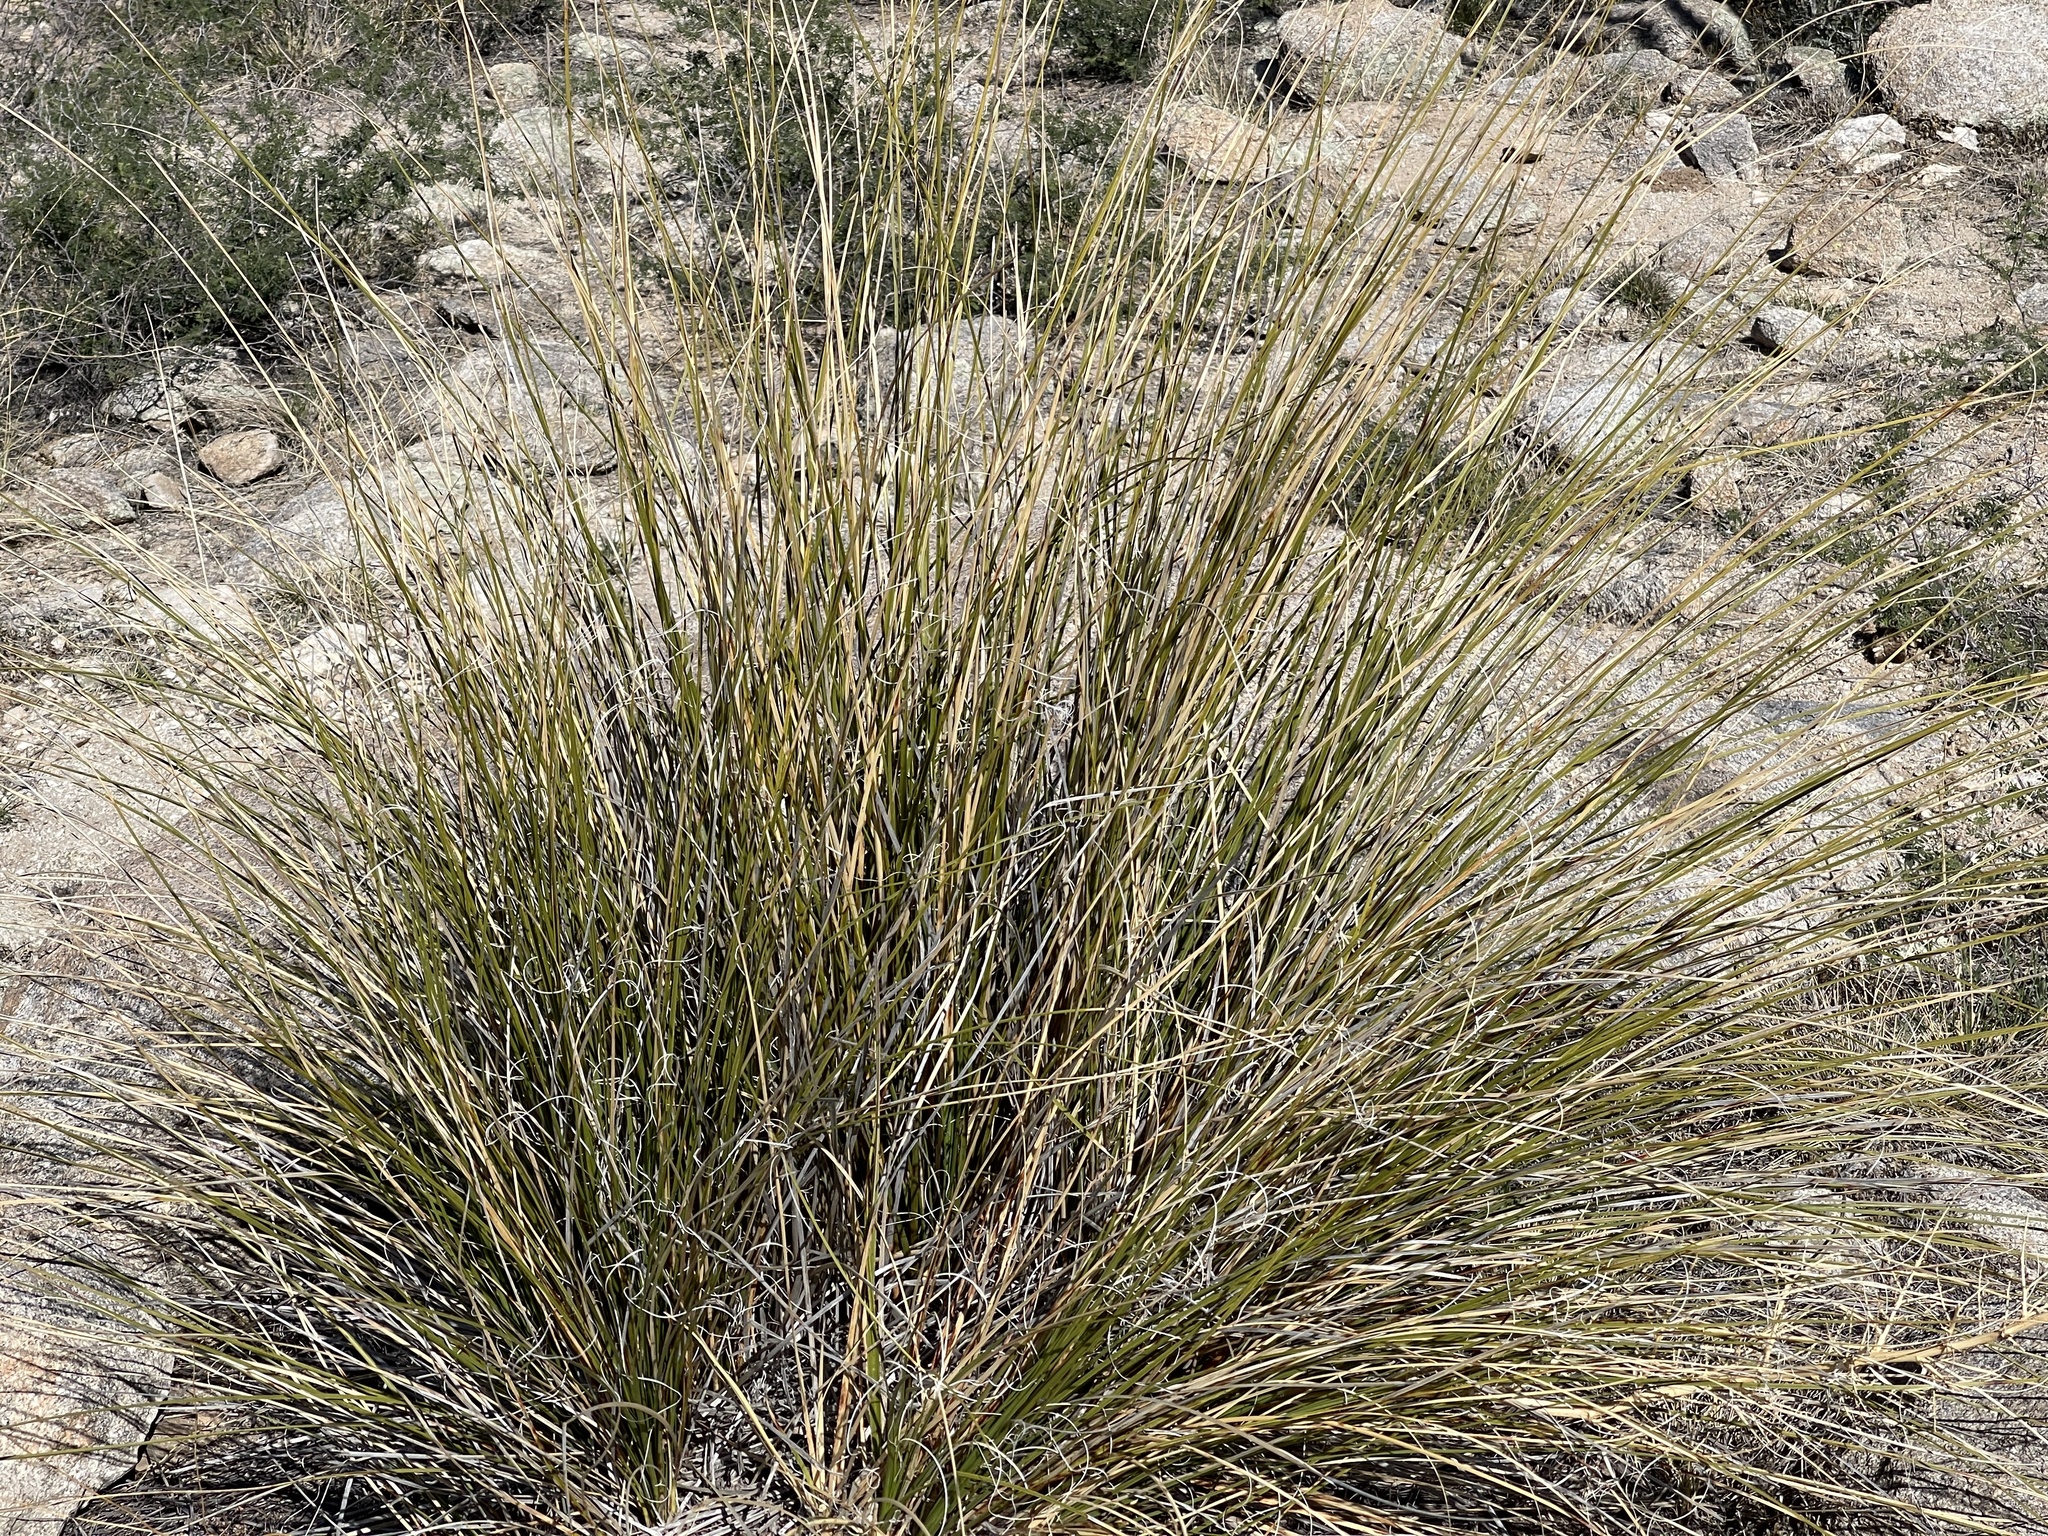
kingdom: Plantae
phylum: Tracheophyta
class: Liliopsida
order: Asparagales
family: Asparagaceae
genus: Nolina
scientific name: Nolina microcarpa
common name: Bear-grass
